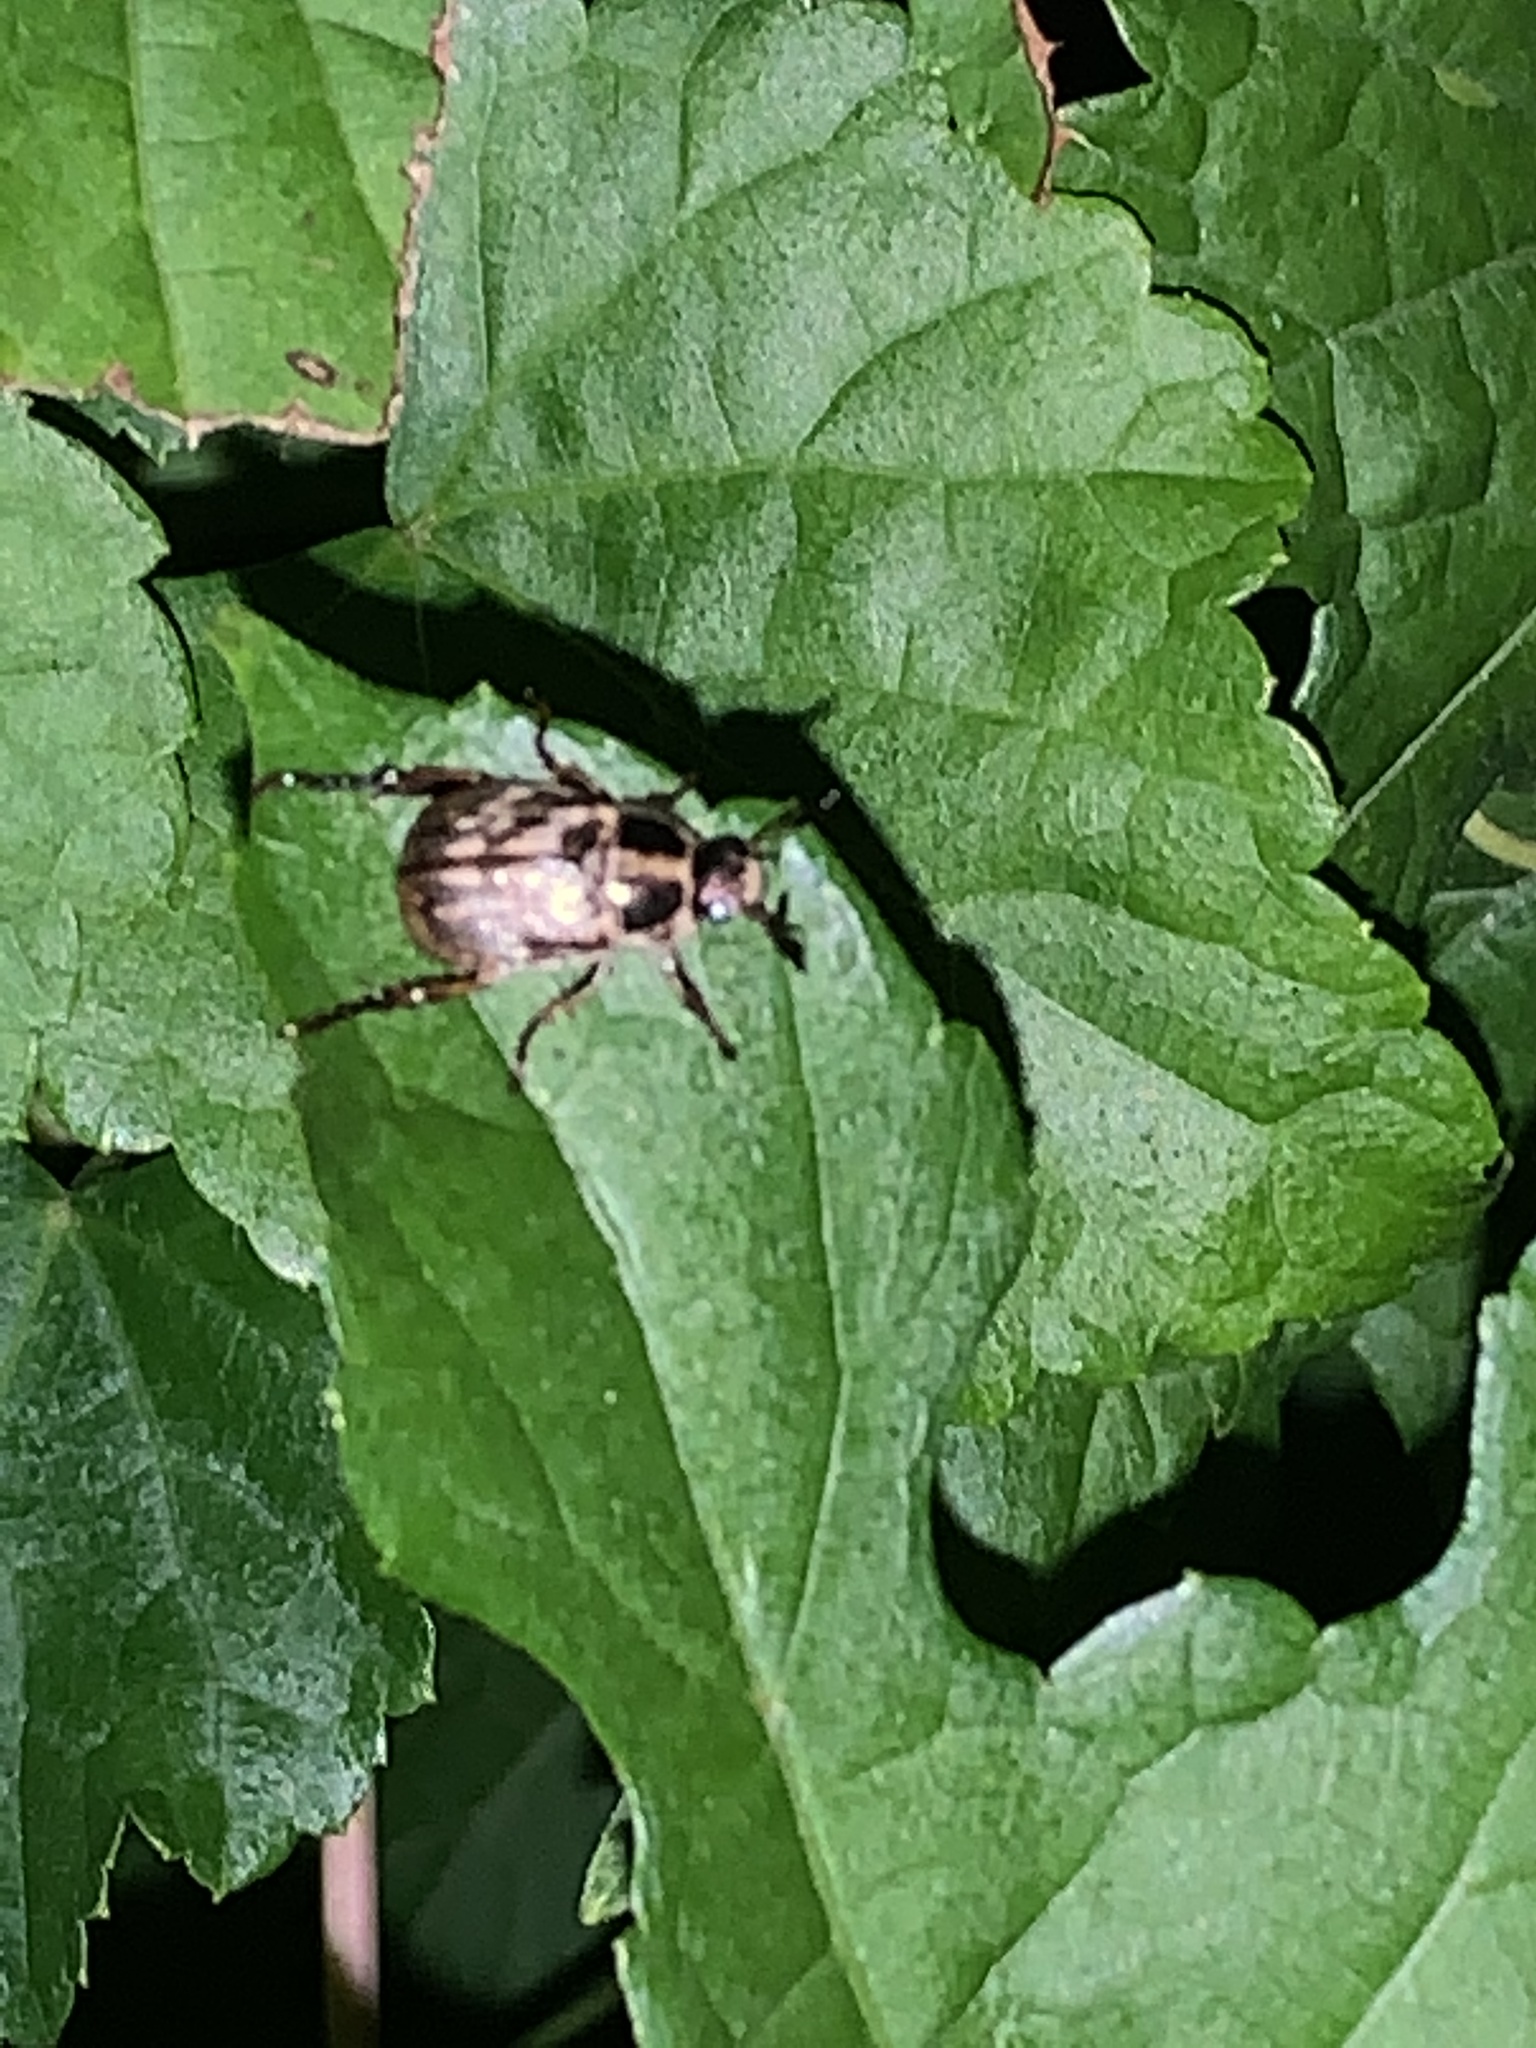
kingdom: Animalia
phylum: Arthropoda
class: Insecta
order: Coleoptera
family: Scarabaeidae
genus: Exomala
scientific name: Exomala orientalis
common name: Oriental beetle
